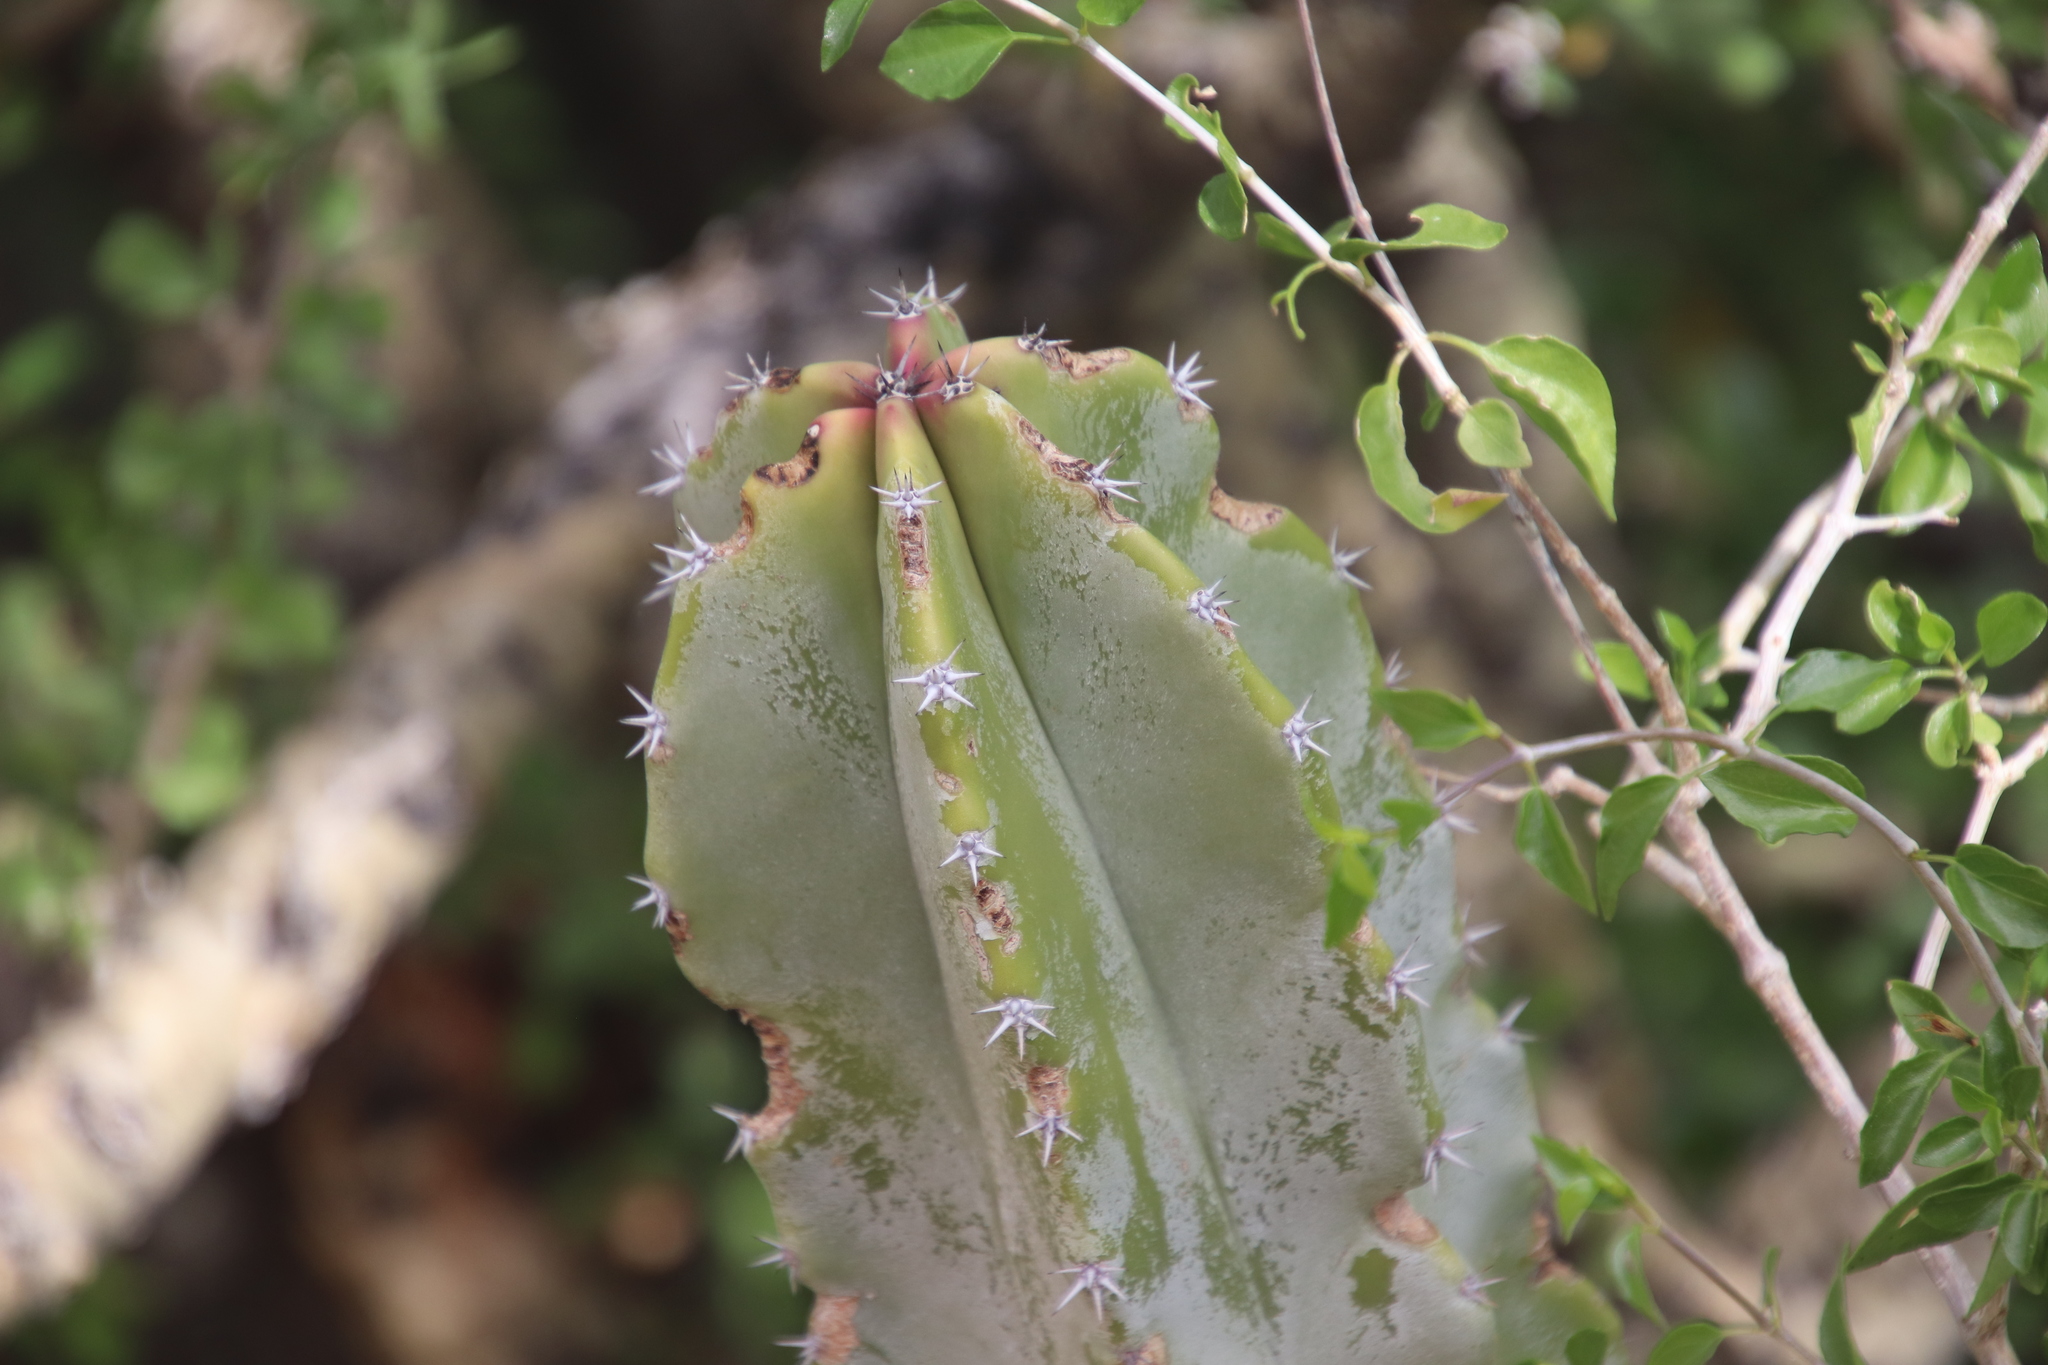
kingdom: Plantae
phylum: Tracheophyta
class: Magnoliopsida
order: Caryophyllales
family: Cactaceae
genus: Pachycereus
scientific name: Pachycereus schottii
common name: Senita cactus
